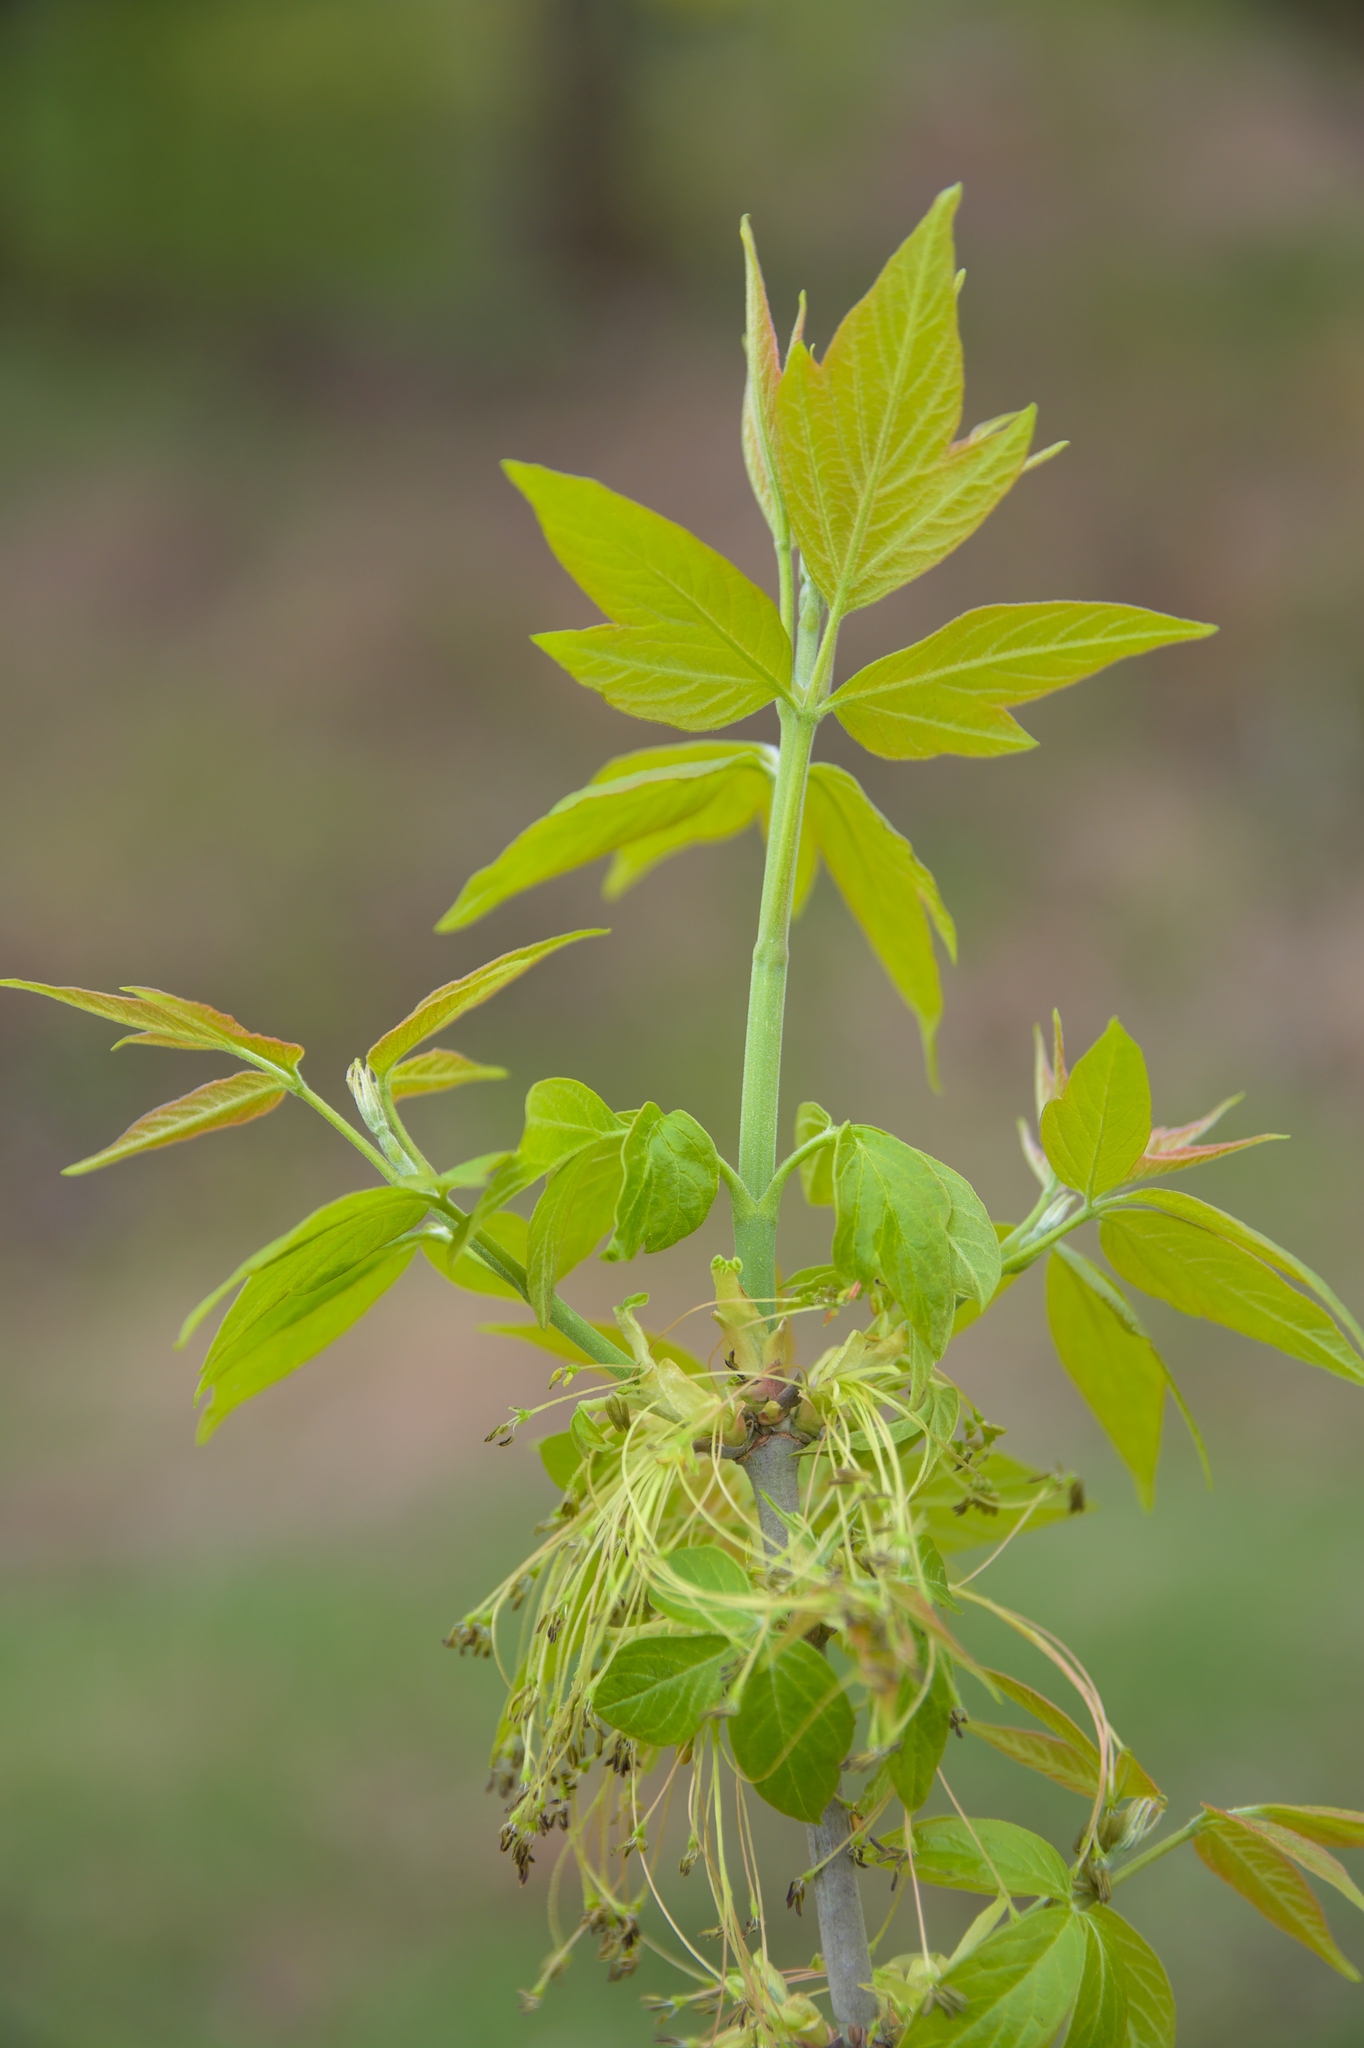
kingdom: Plantae
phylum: Tracheophyta
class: Magnoliopsida
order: Sapindales
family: Sapindaceae
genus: Acer
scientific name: Acer negundo
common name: Ashleaf maple
